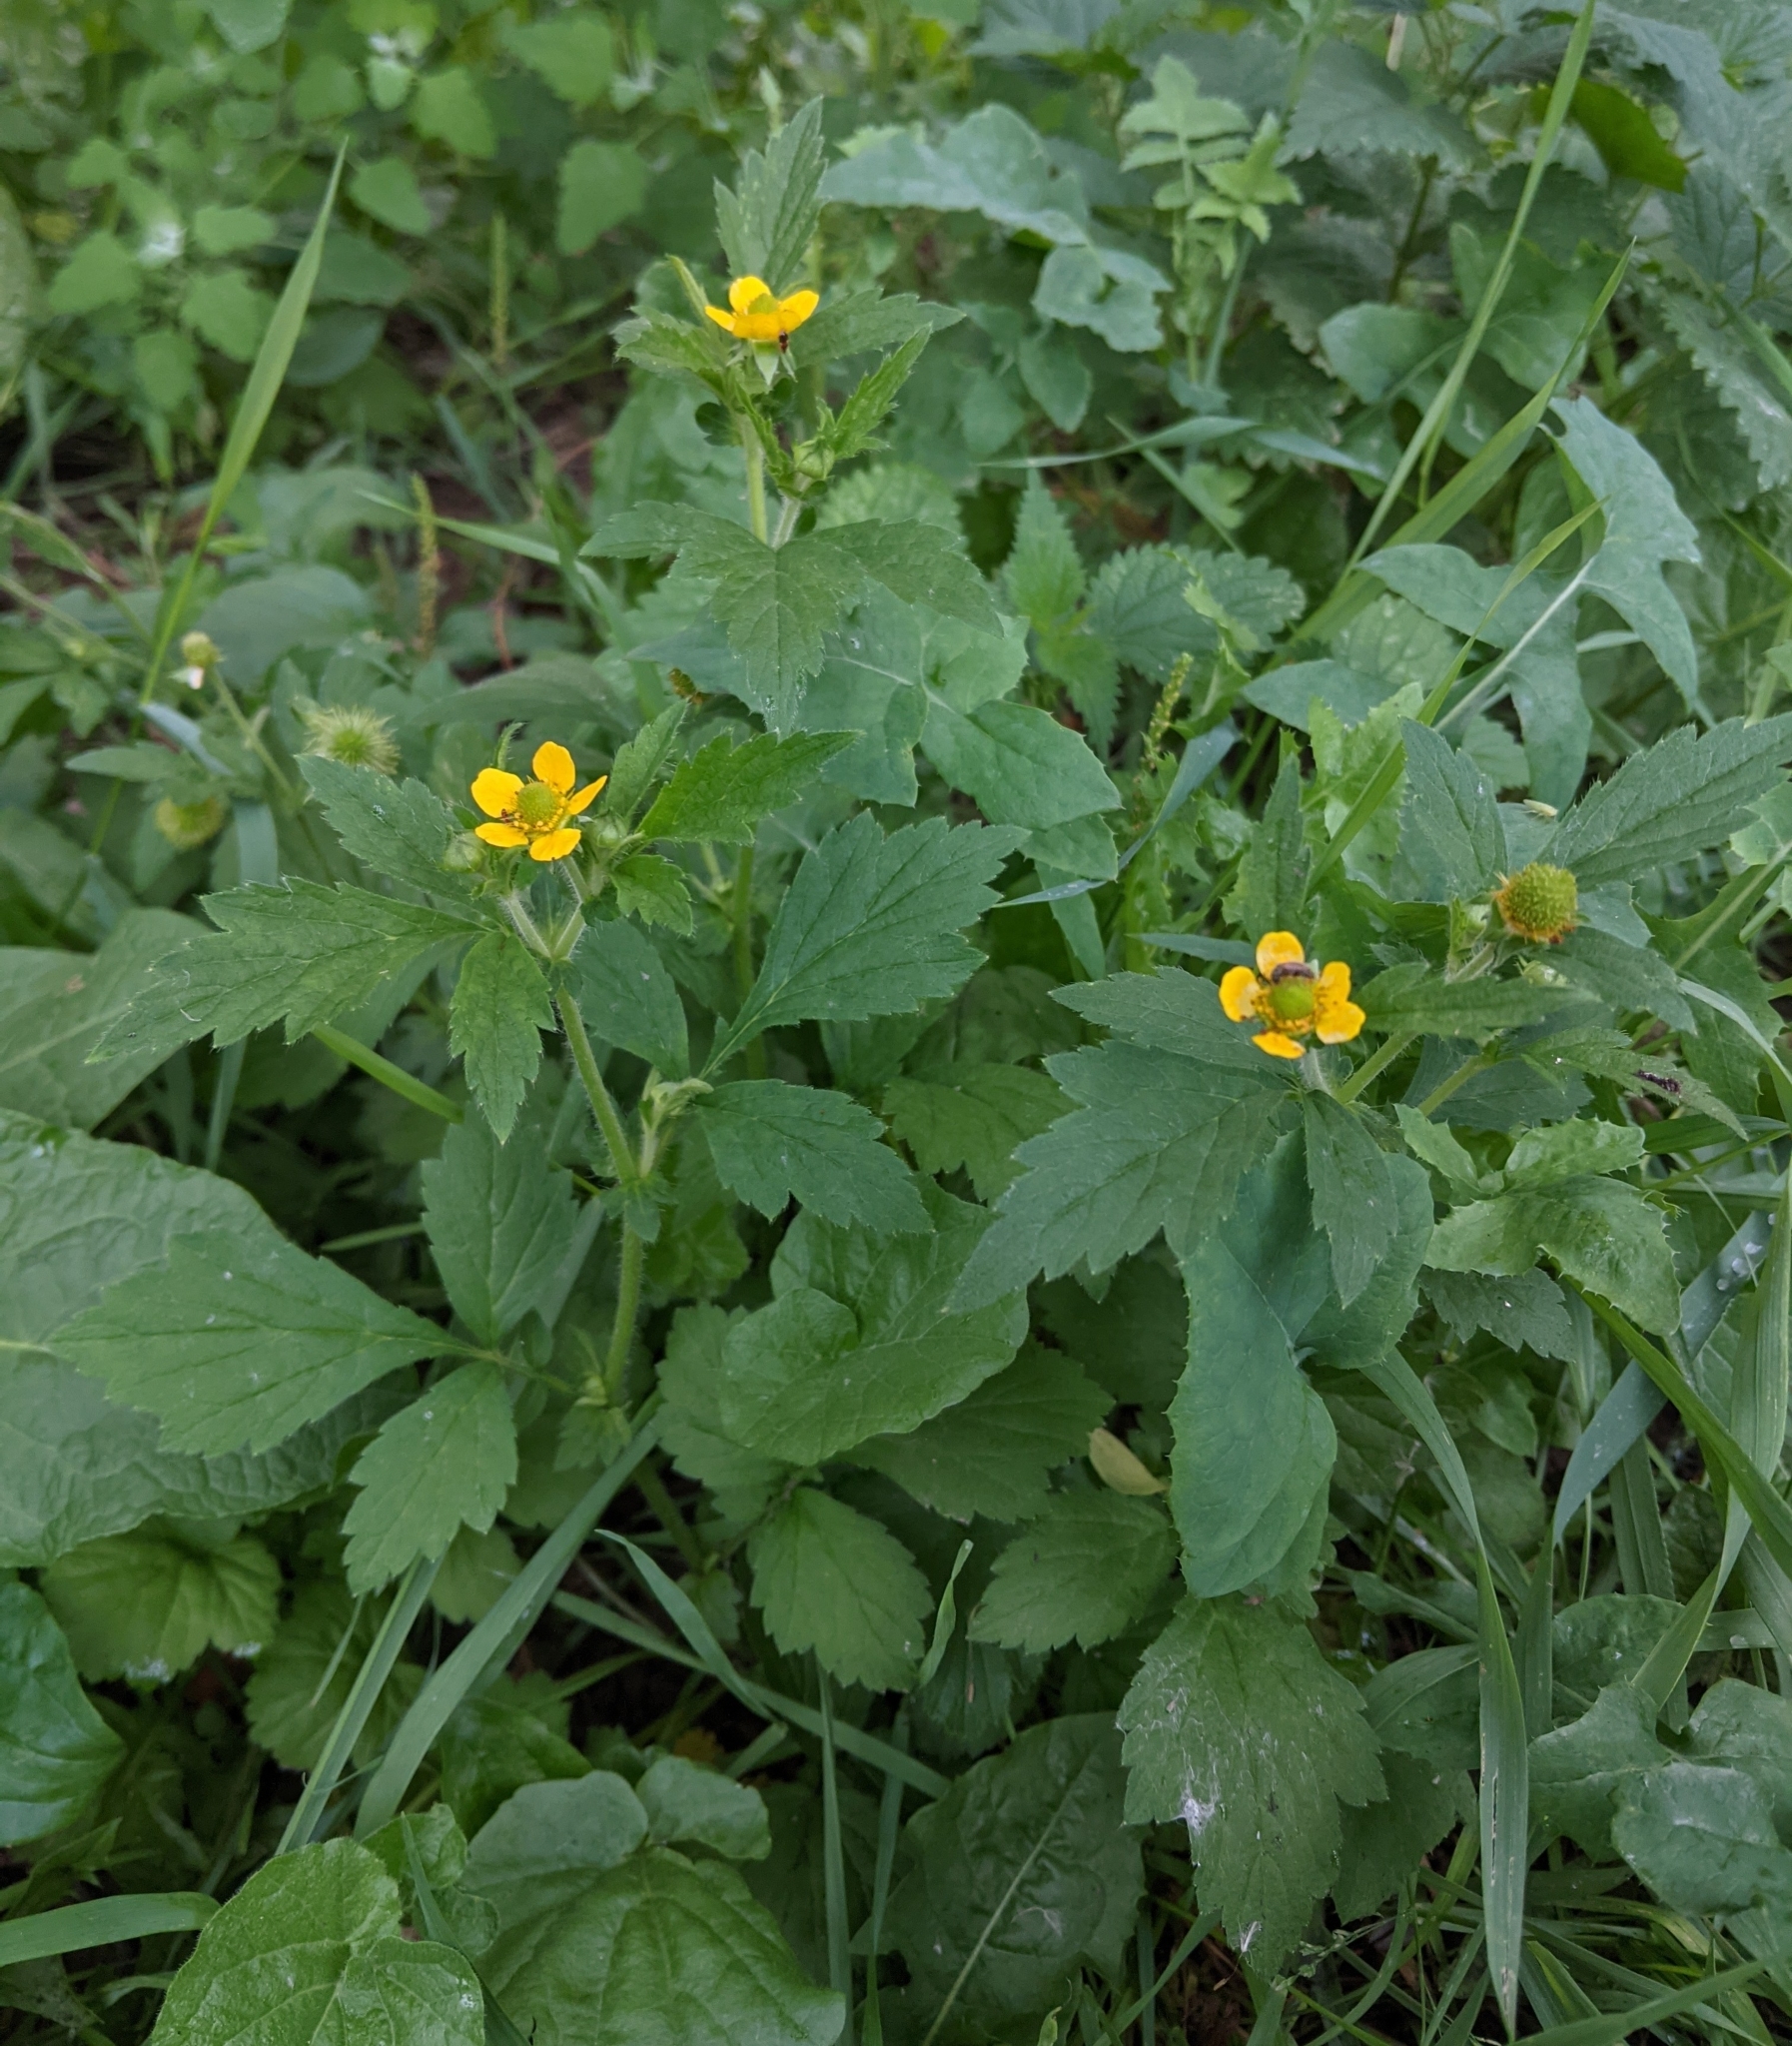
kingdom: Plantae
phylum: Tracheophyta
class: Magnoliopsida
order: Rosales
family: Rosaceae
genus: Geum
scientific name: Geum aleppicum
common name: Yellow avens
